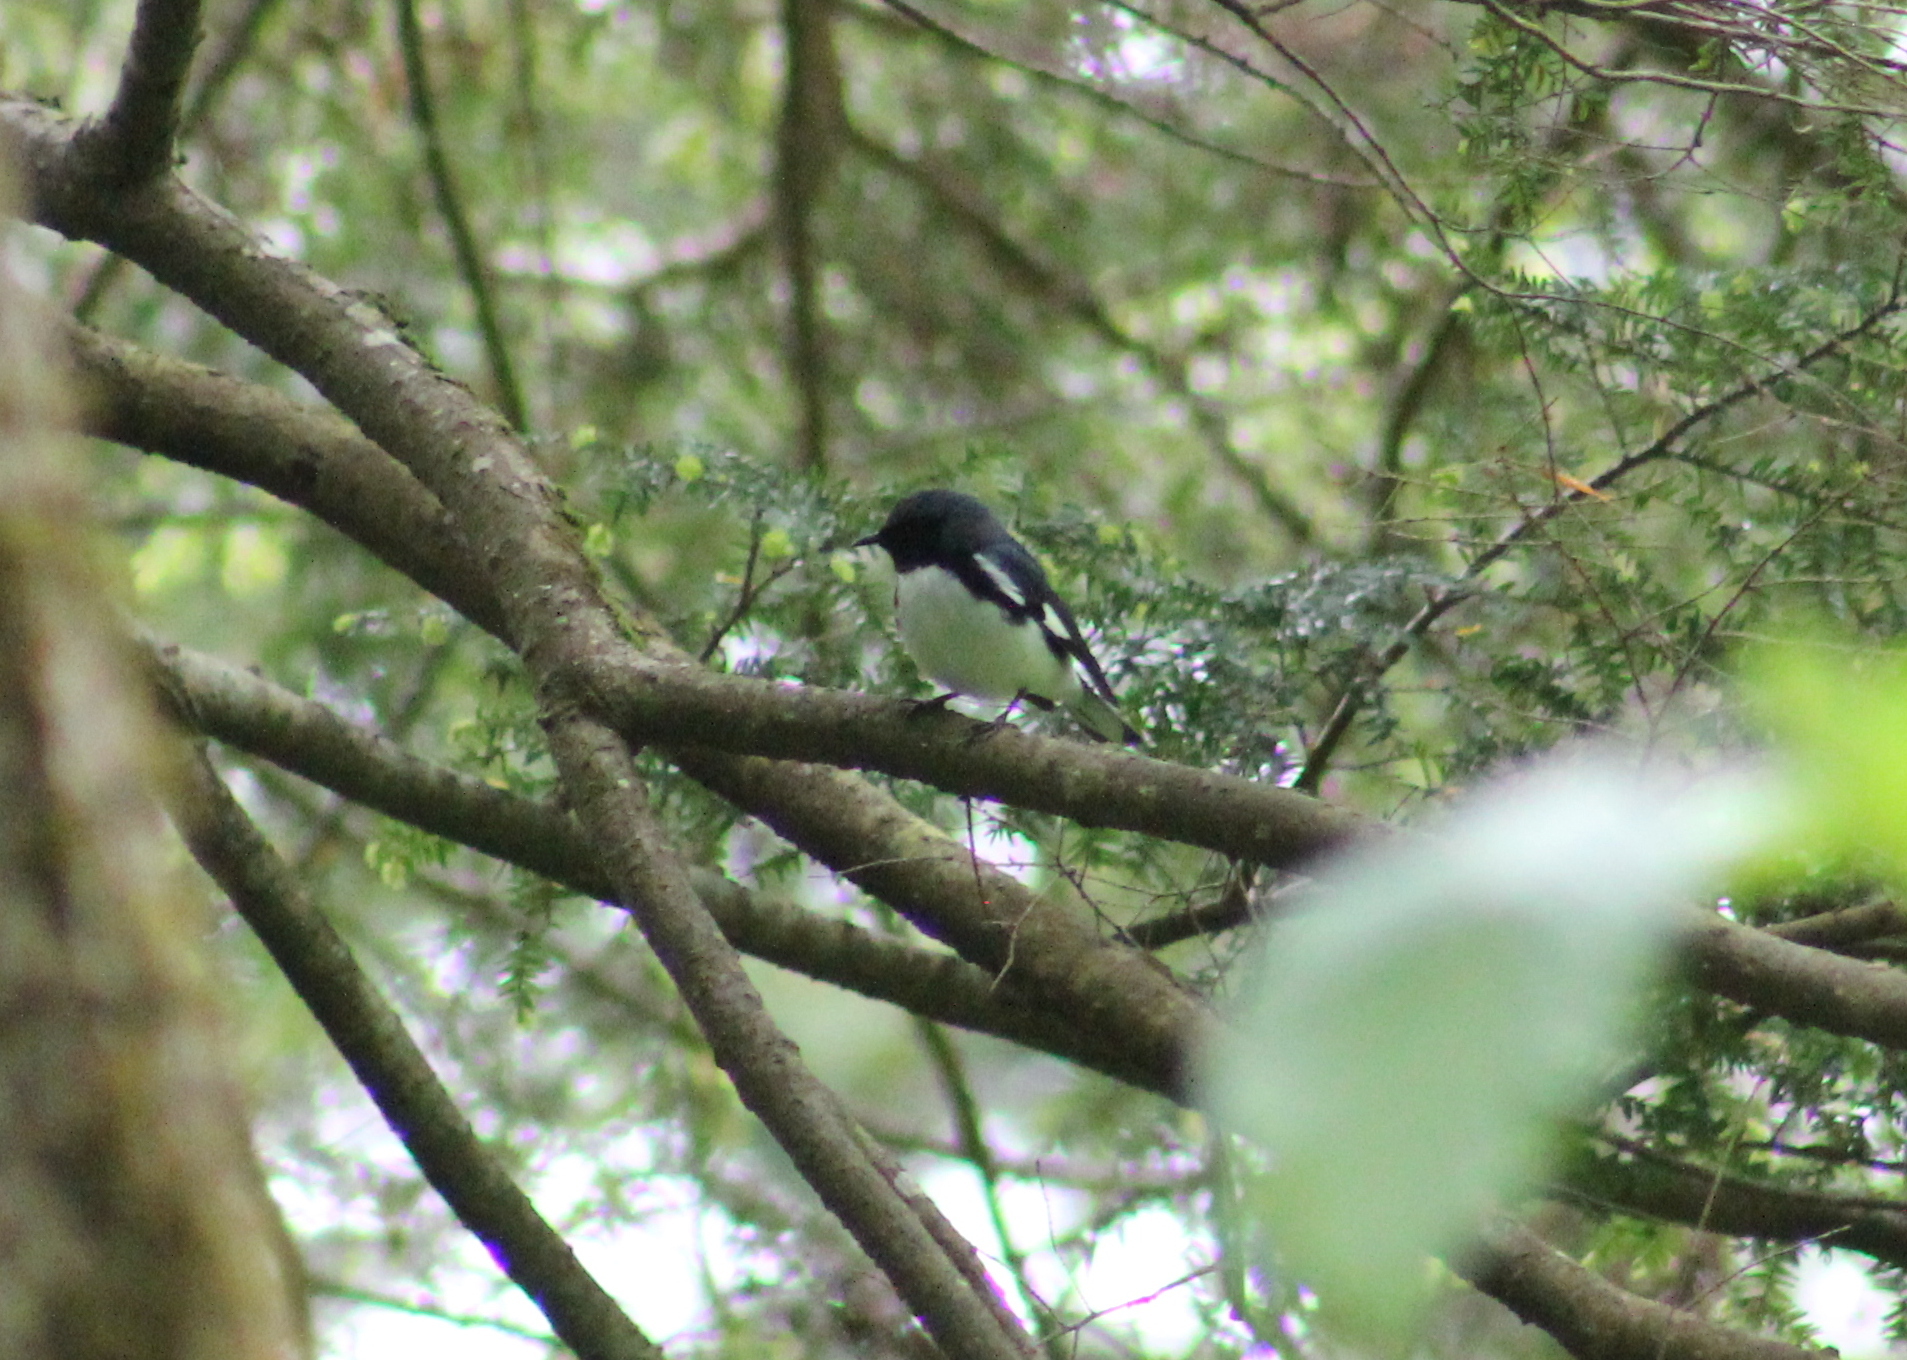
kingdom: Animalia
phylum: Chordata
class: Aves
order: Passeriformes
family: Parulidae
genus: Setophaga
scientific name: Setophaga caerulescens
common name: Black-throated blue warbler
